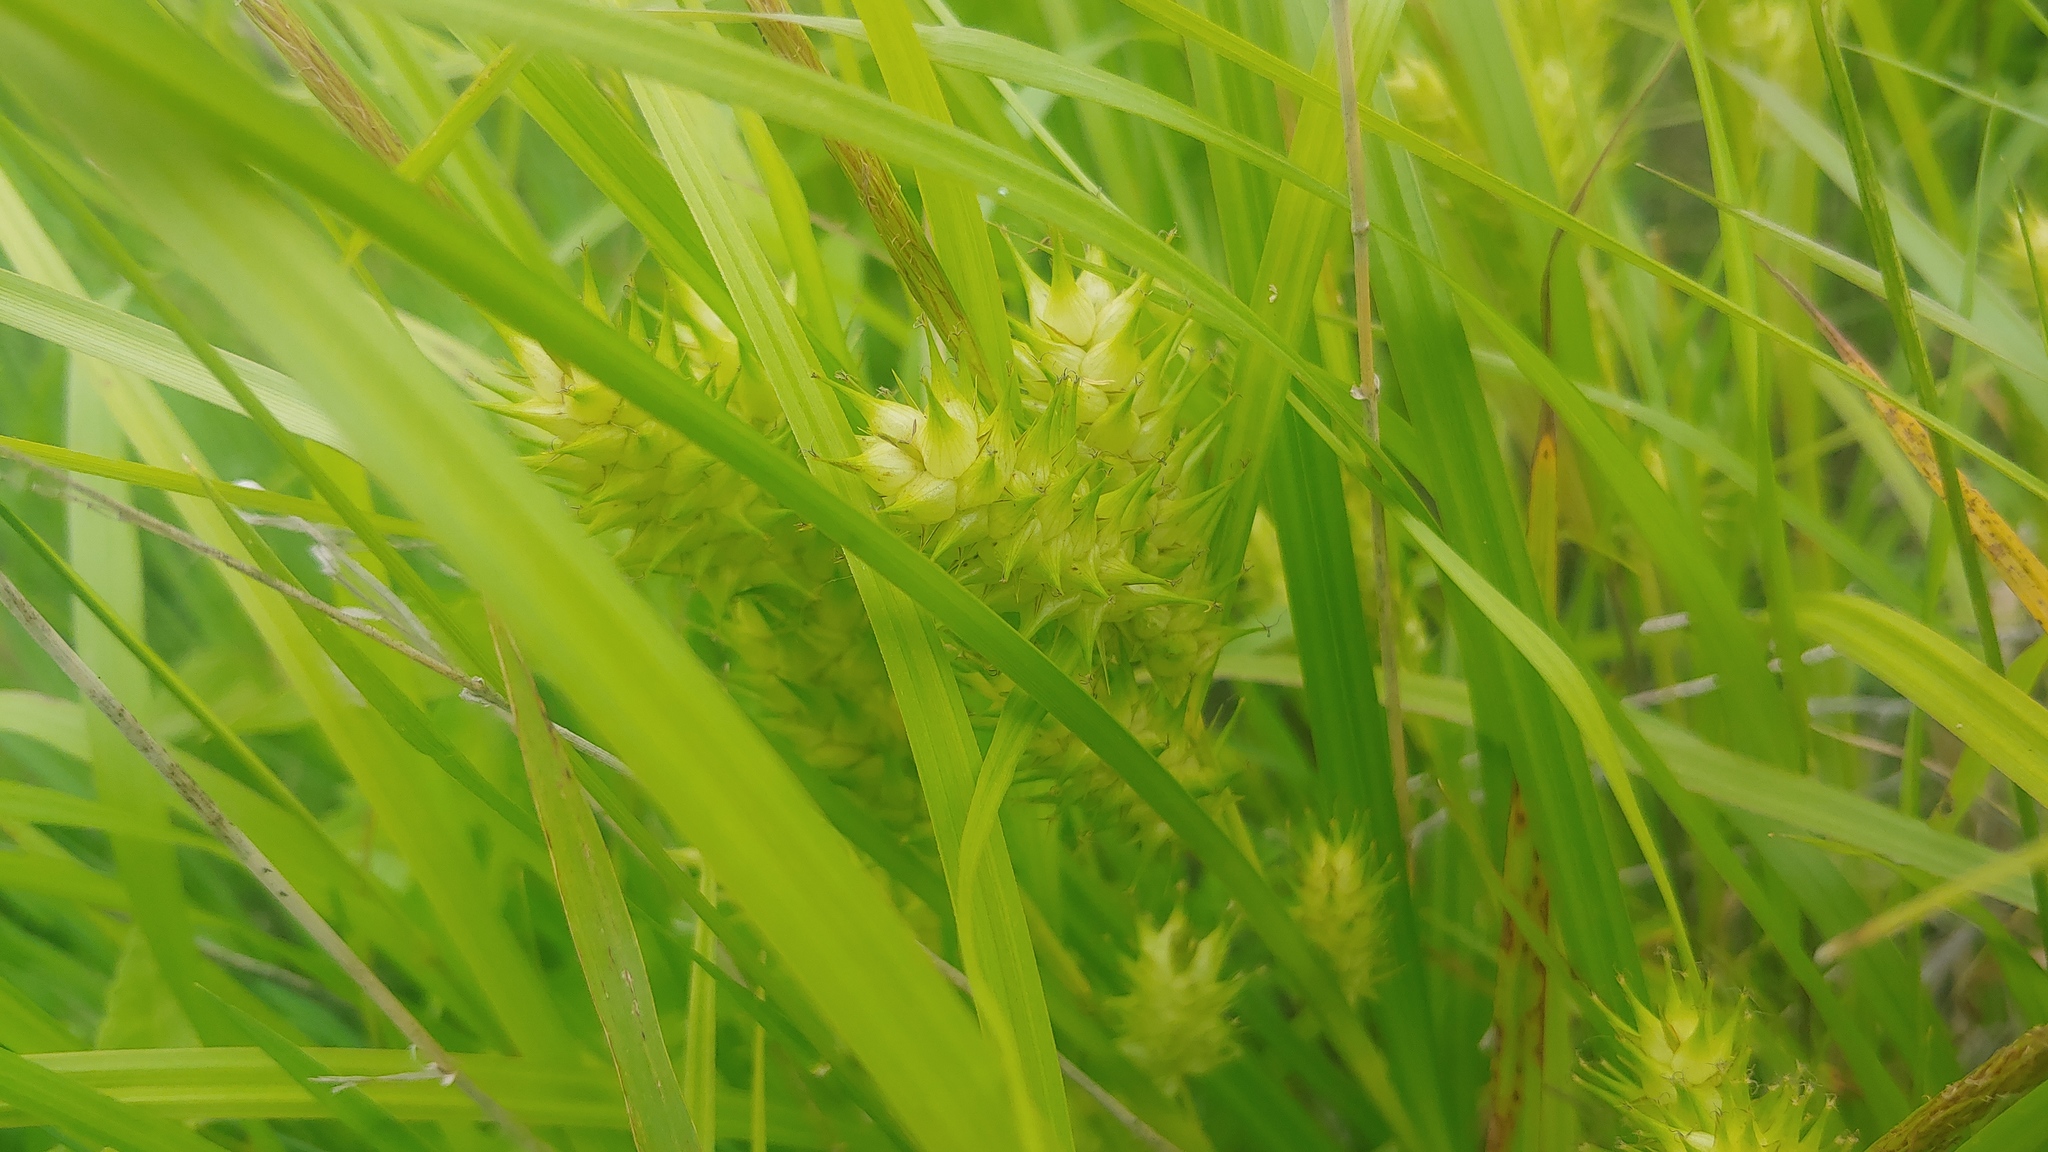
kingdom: Plantae
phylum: Tracheophyta
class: Liliopsida
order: Poales
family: Cyperaceae
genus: Carex
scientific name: Carex lupulina
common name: Hop sedge
